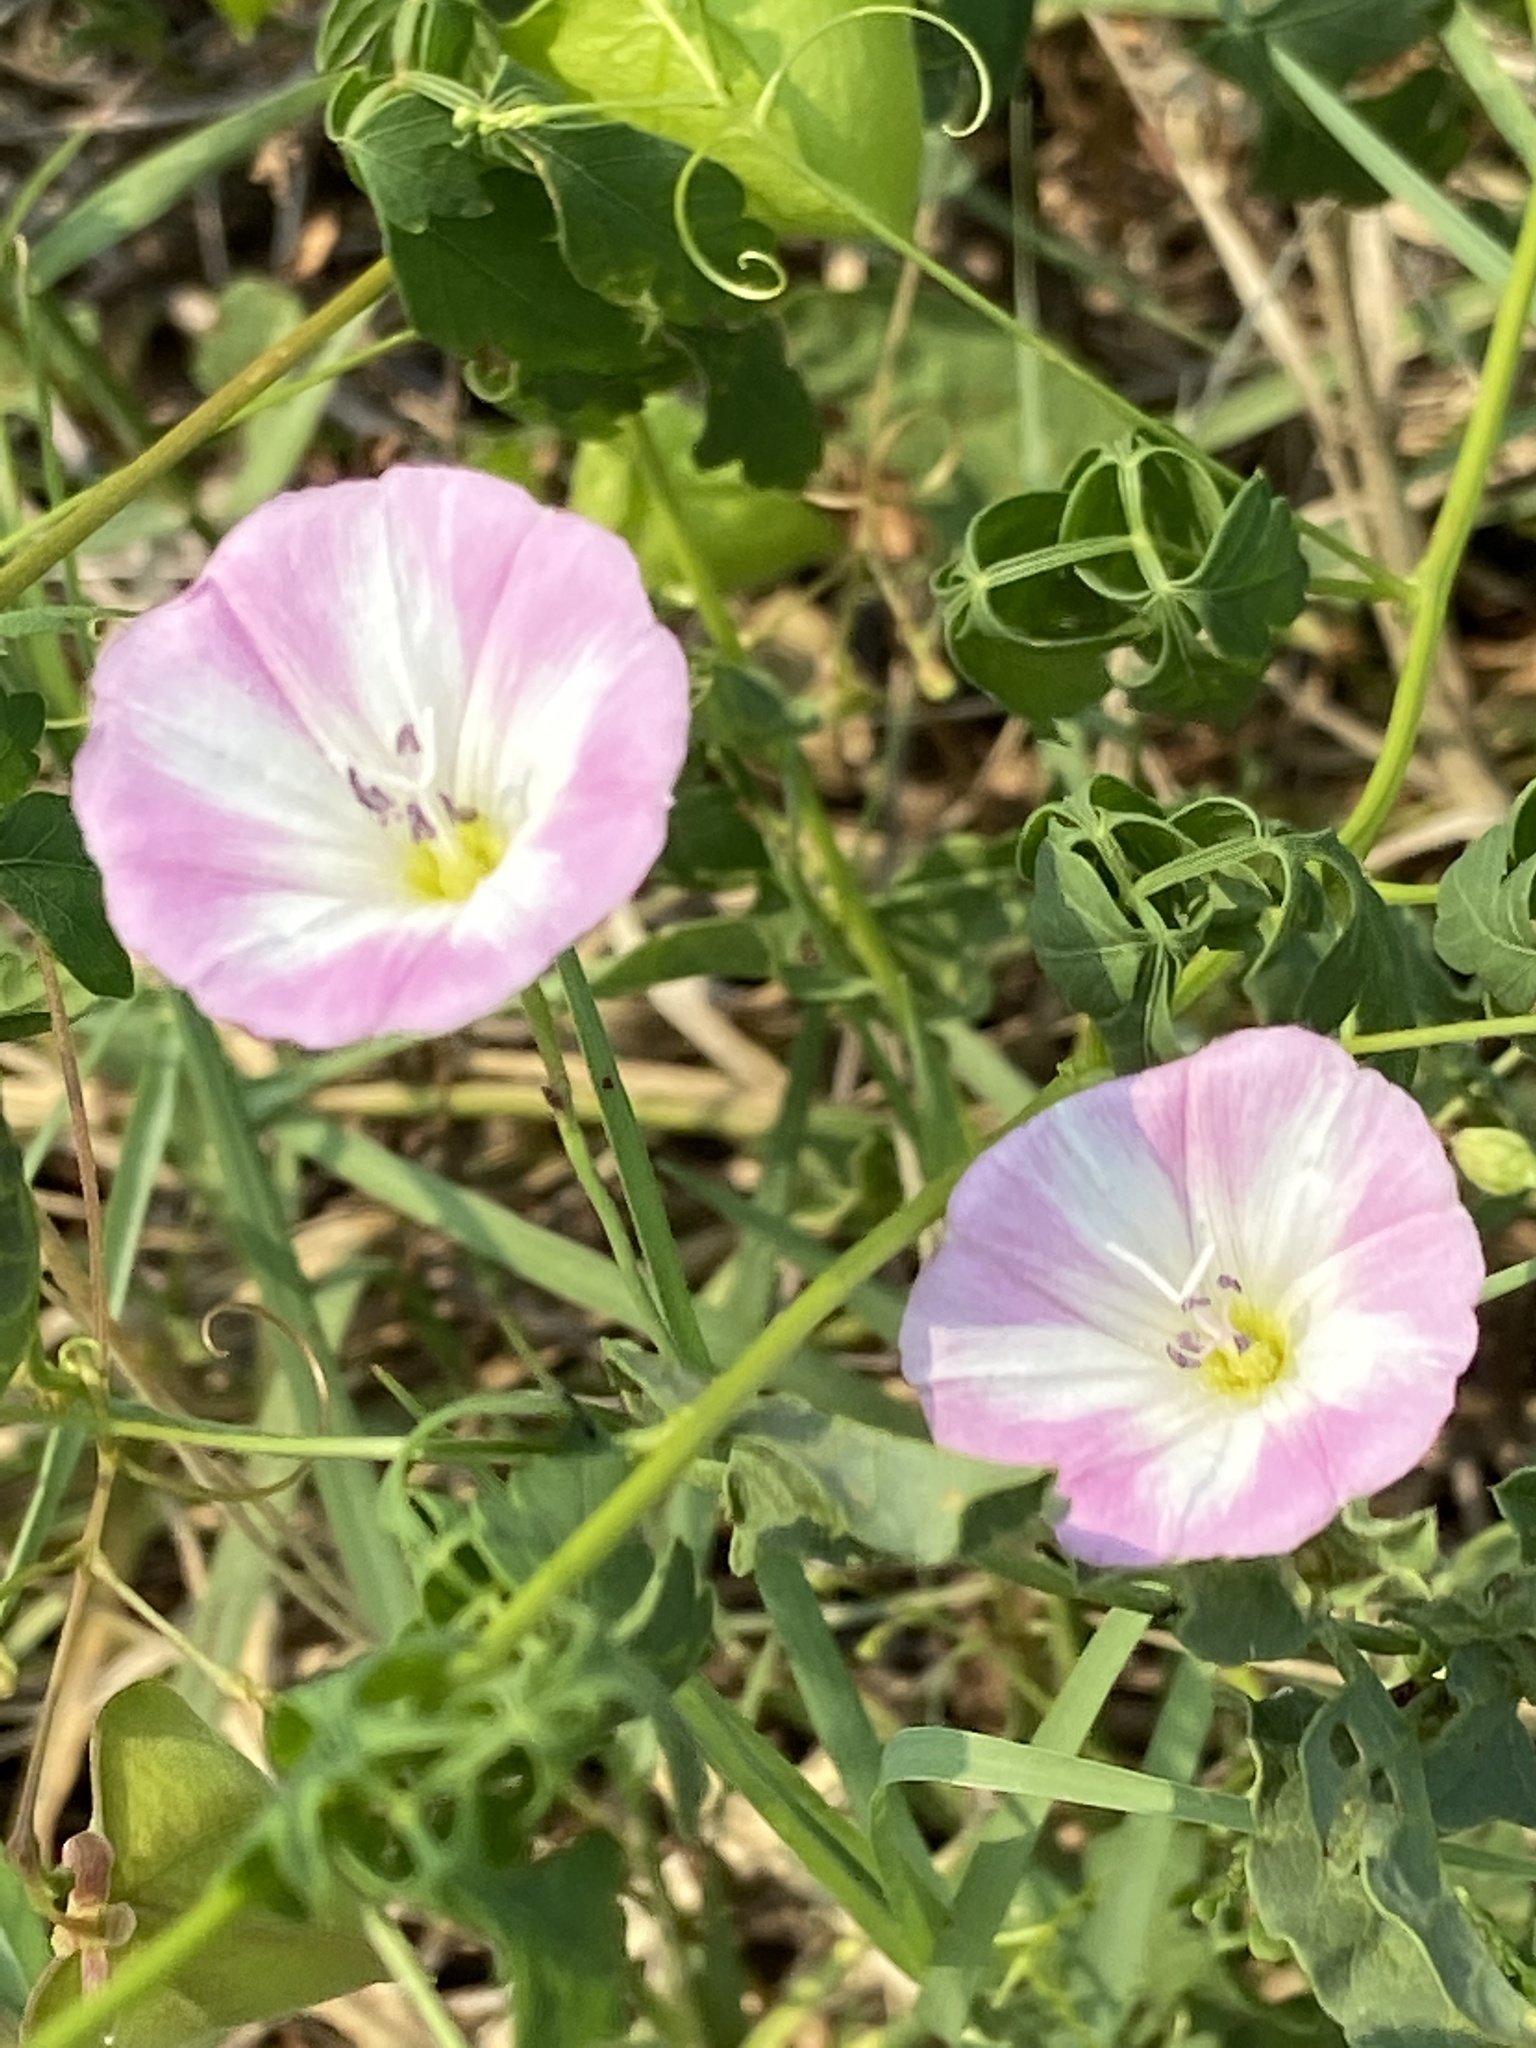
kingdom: Plantae
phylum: Tracheophyta
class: Magnoliopsida
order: Solanales
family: Convolvulaceae
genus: Convolvulus
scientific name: Convolvulus arvensis
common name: Field bindweed
